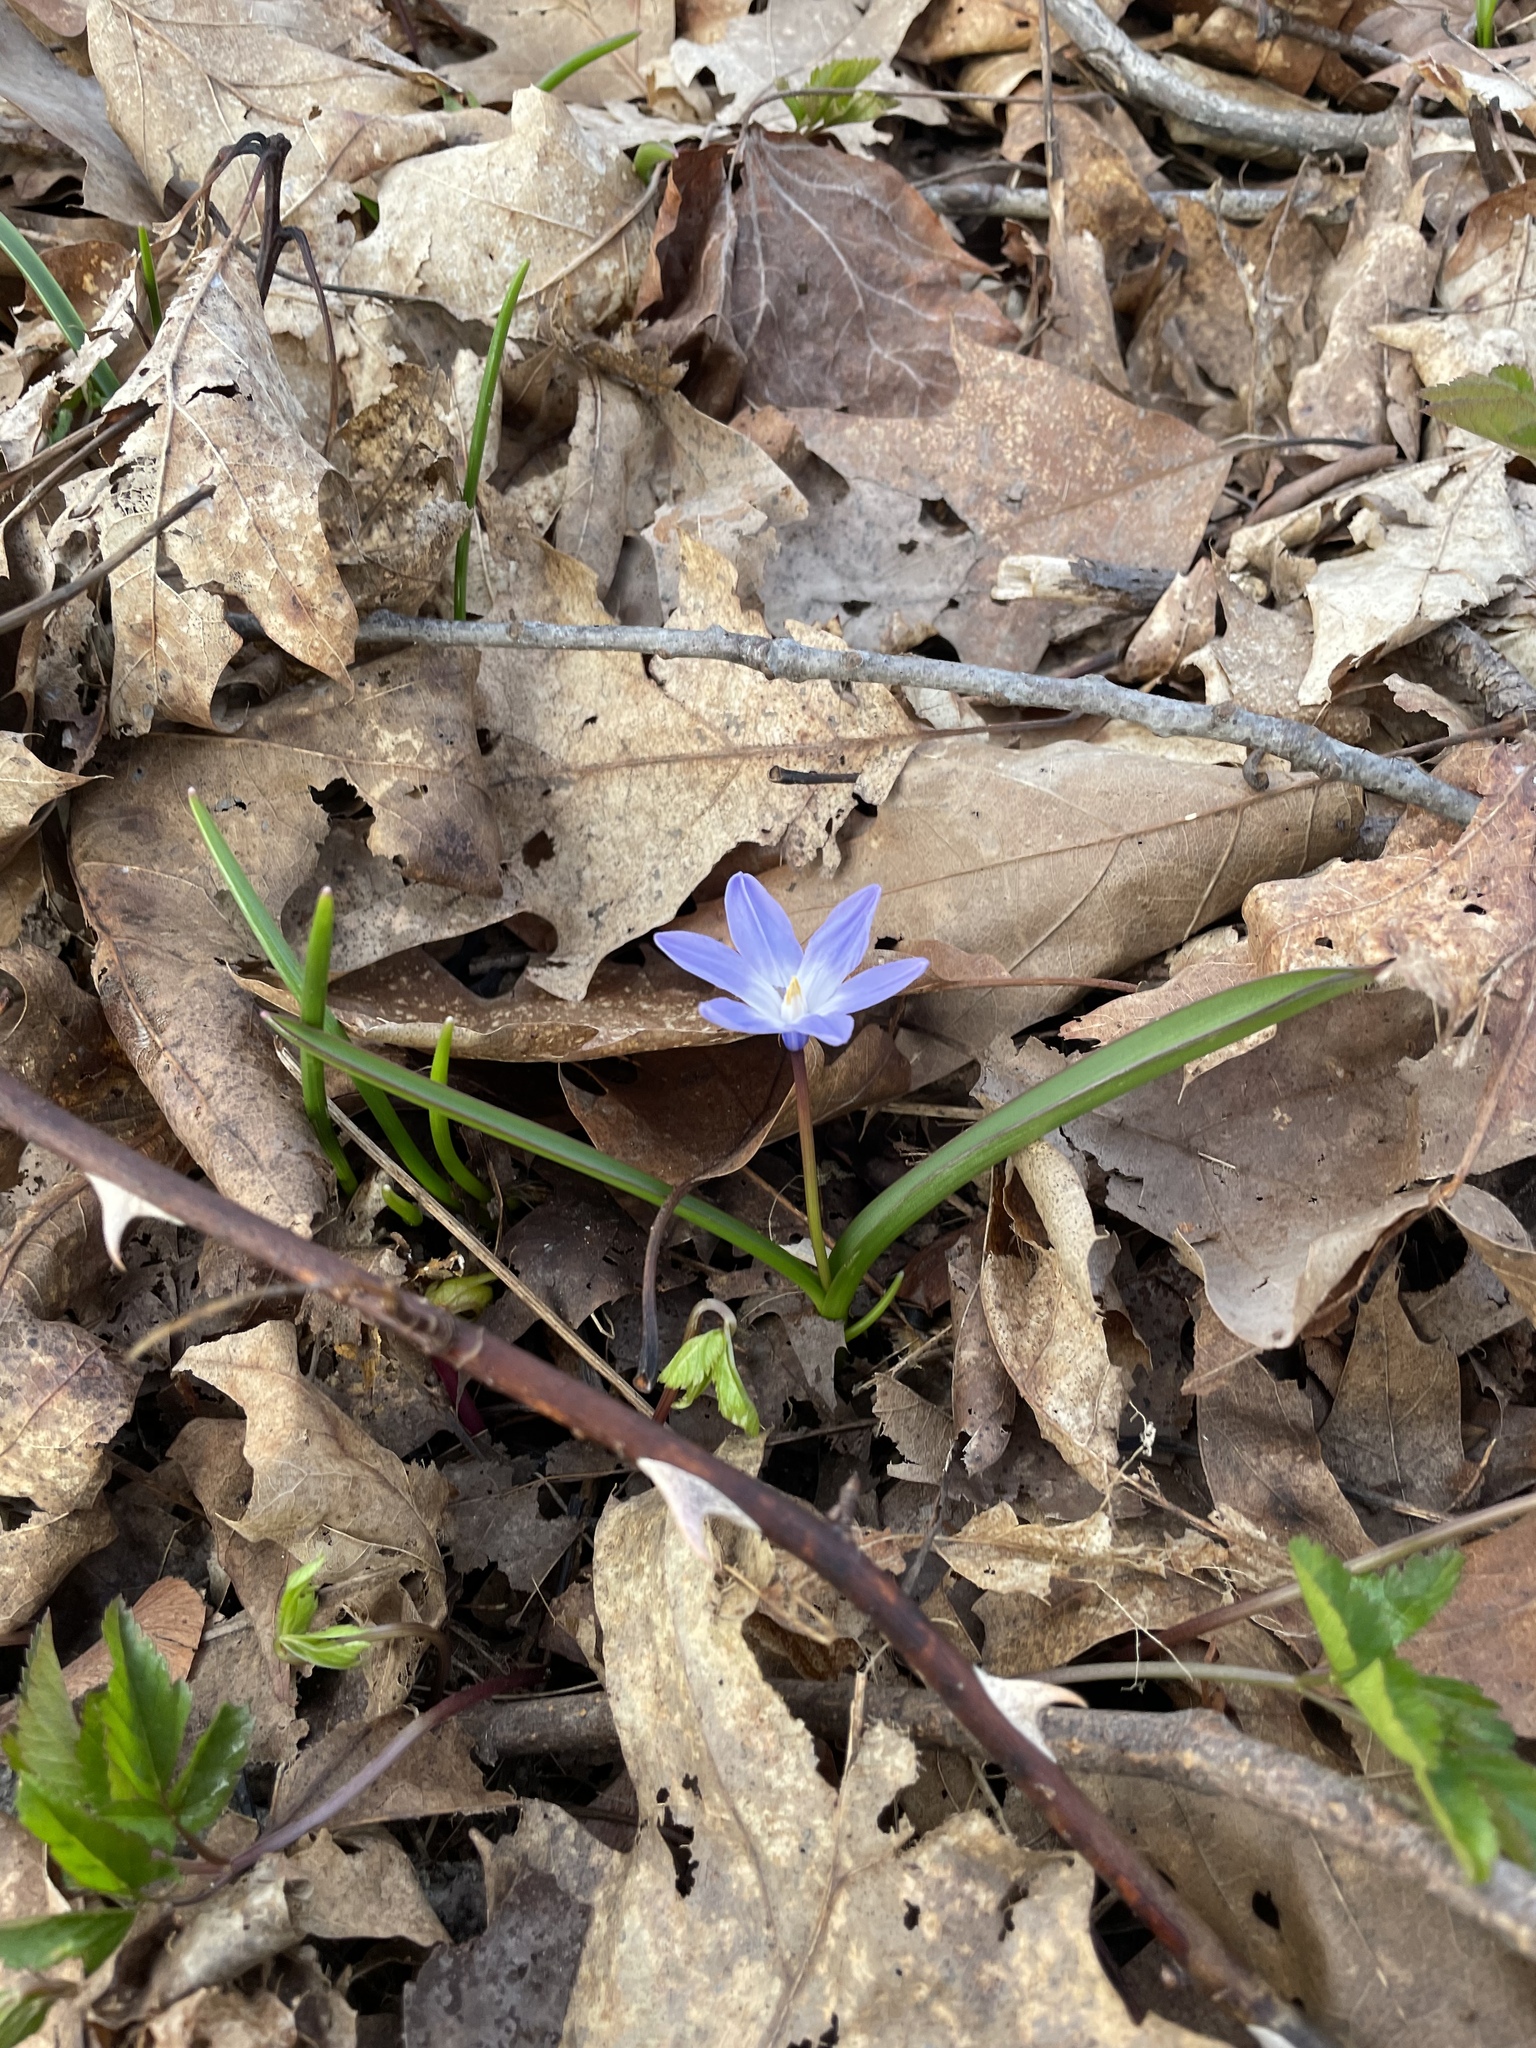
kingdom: Plantae
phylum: Tracheophyta
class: Liliopsida
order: Asparagales
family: Asparagaceae
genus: Scilla
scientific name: Scilla luciliae
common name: Boissier's glory-of-the-snow
